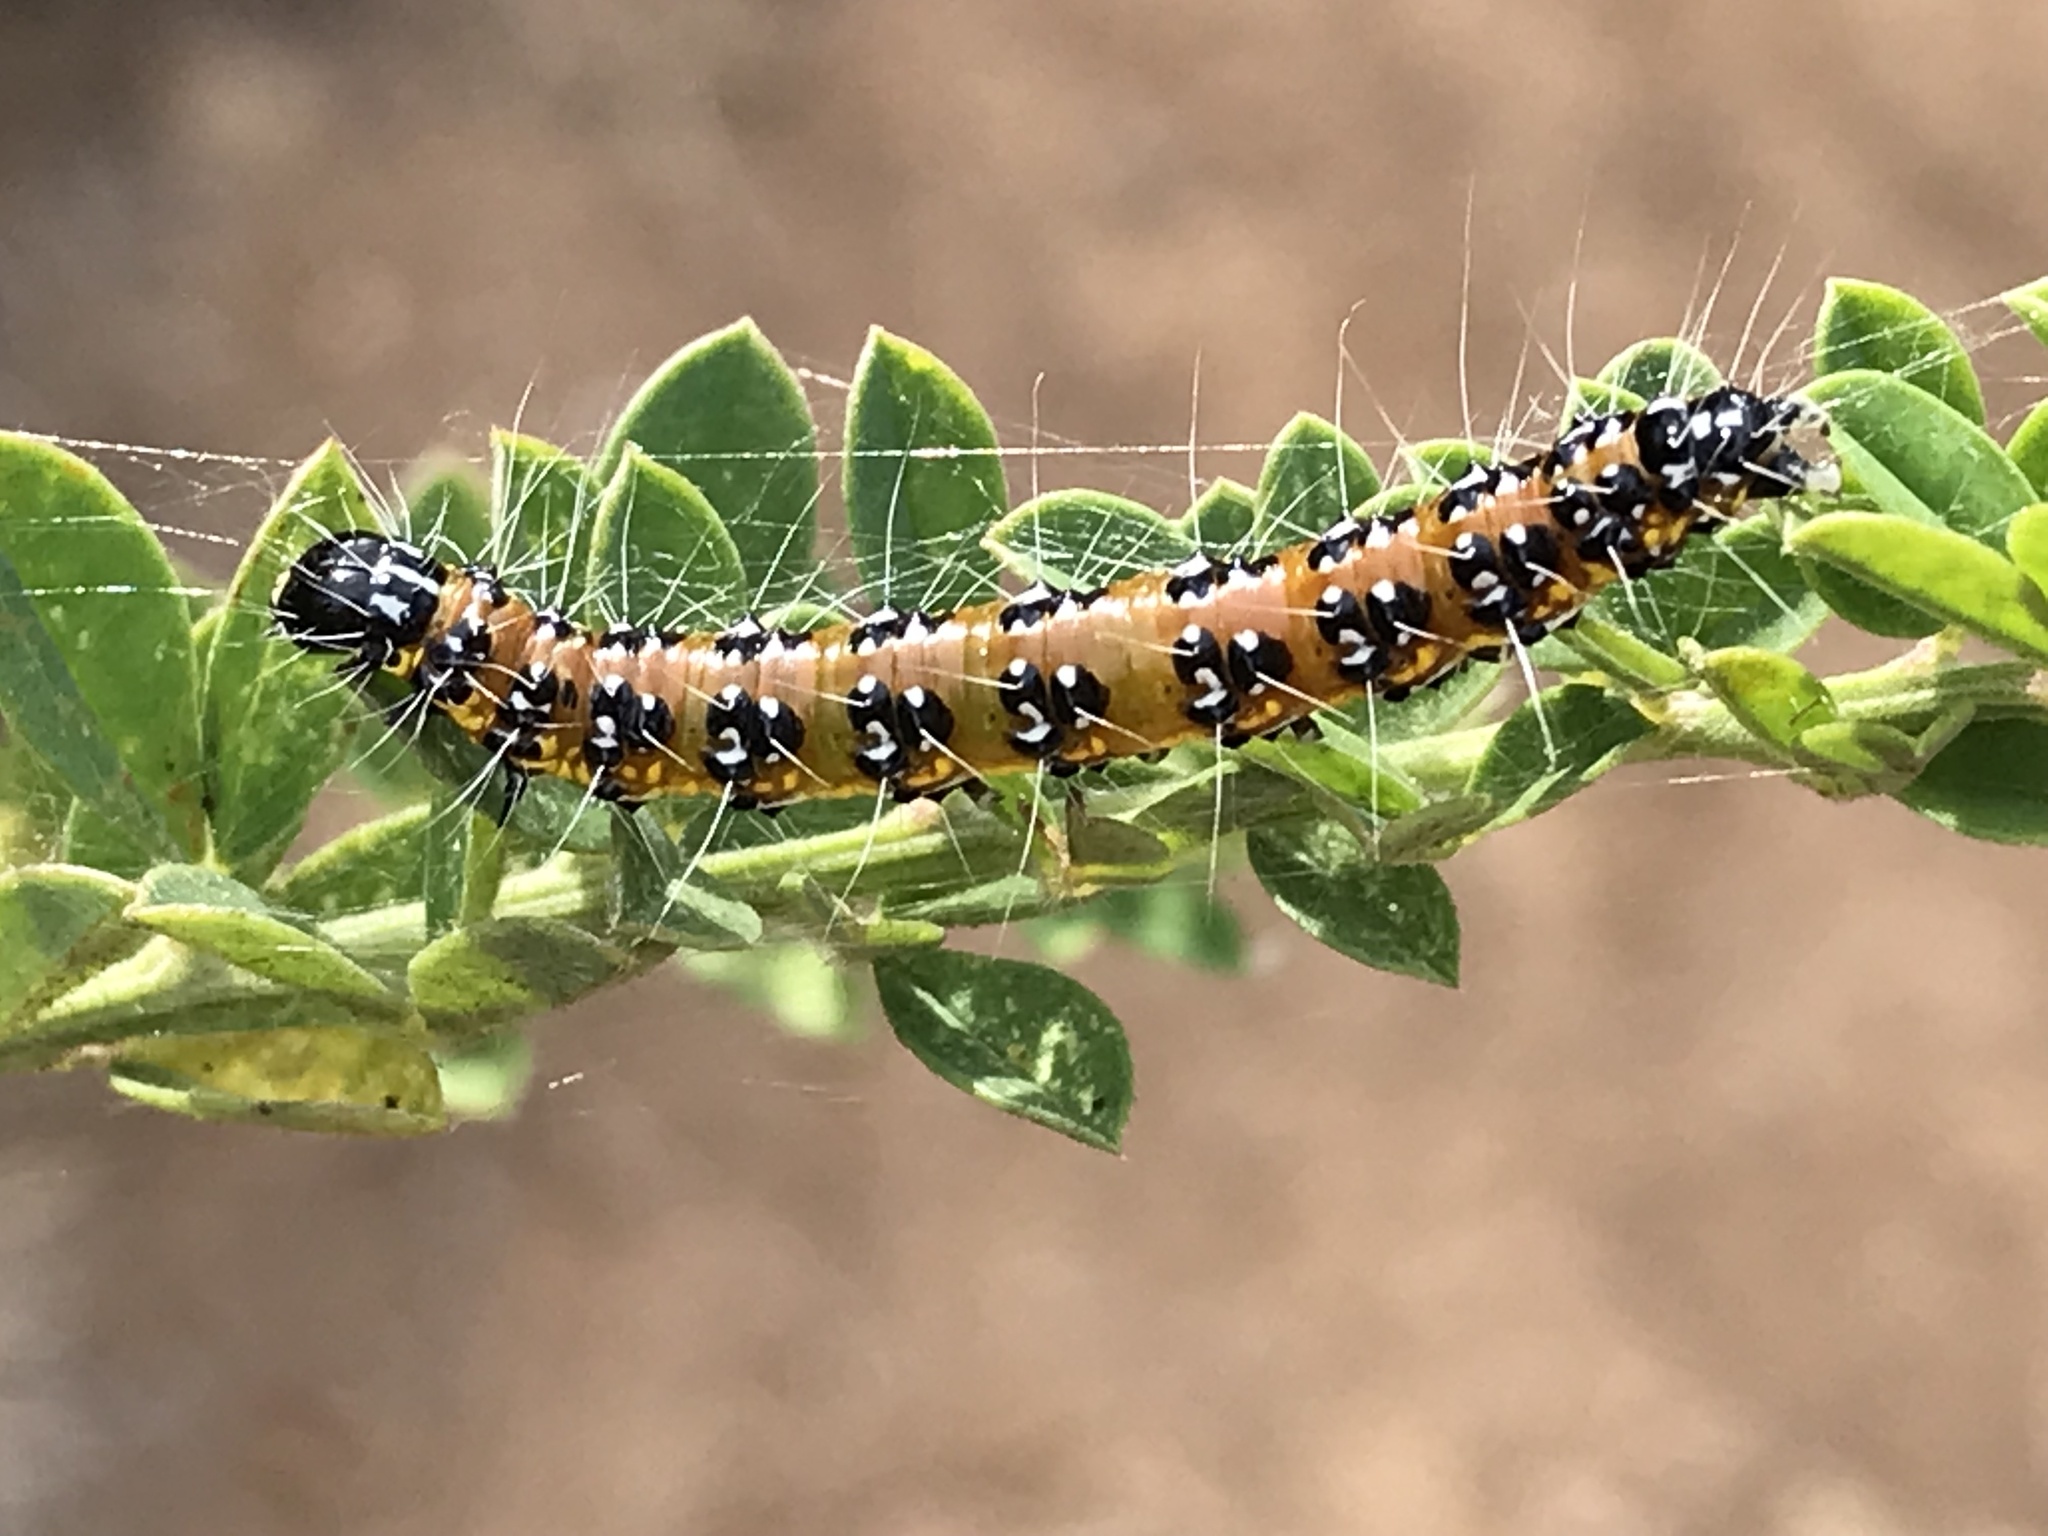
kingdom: Animalia
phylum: Arthropoda
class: Insecta
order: Lepidoptera
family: Crambidae
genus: Uresiphita
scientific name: Uresiphita reversalis
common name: Genista broom moth
